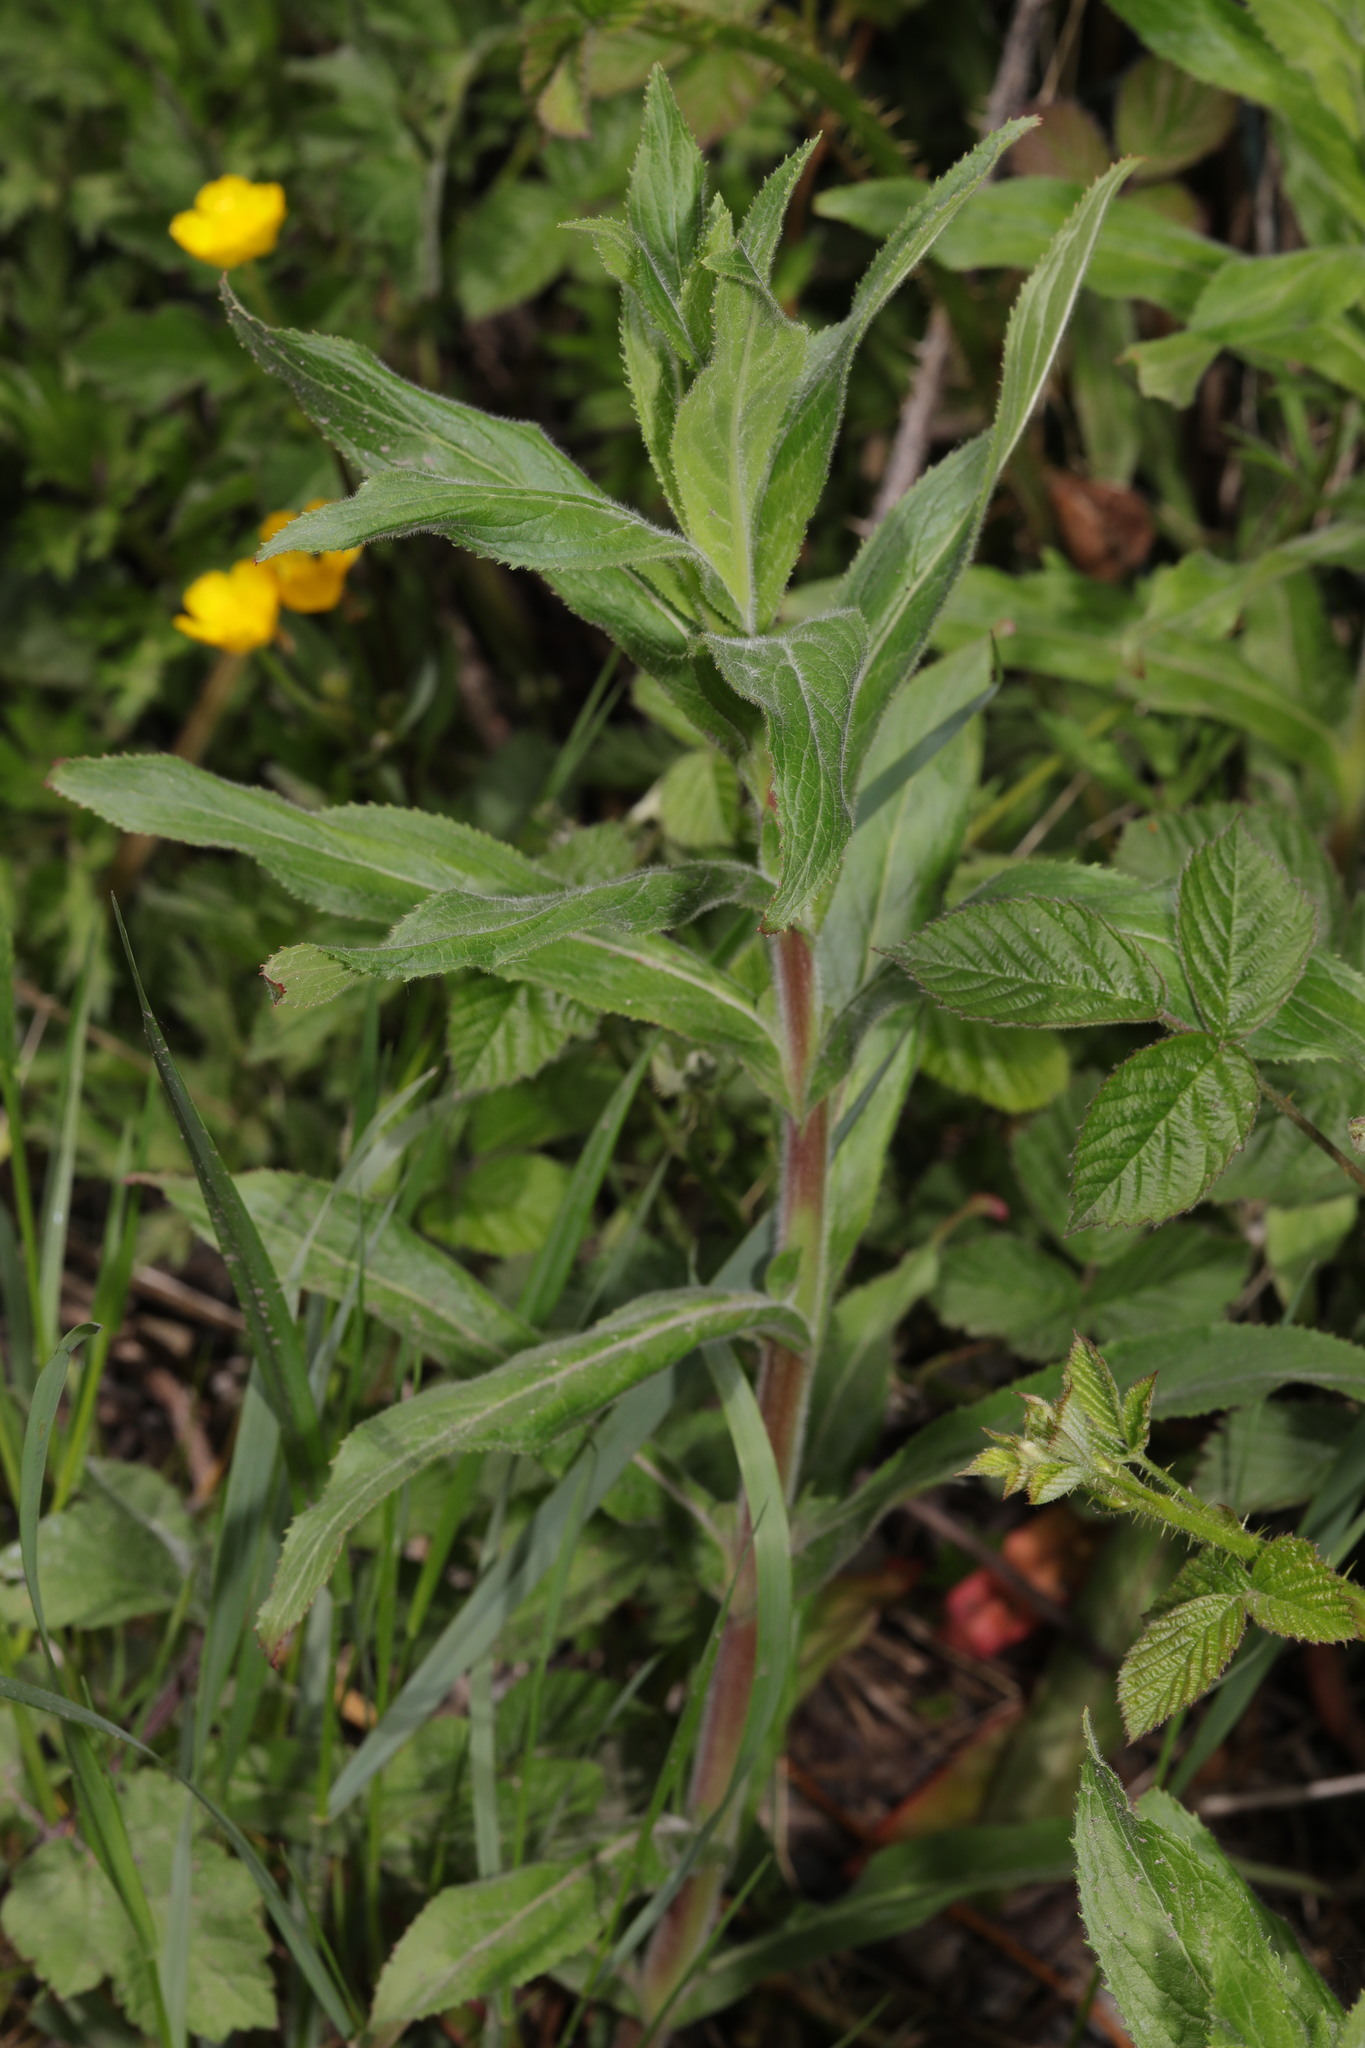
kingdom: Plantae
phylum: Tracheophyta
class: Magnoliopsida
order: Myrtales
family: Onagraceae
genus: Epilobium
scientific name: Epilobium hirsutum
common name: Great willowherb
